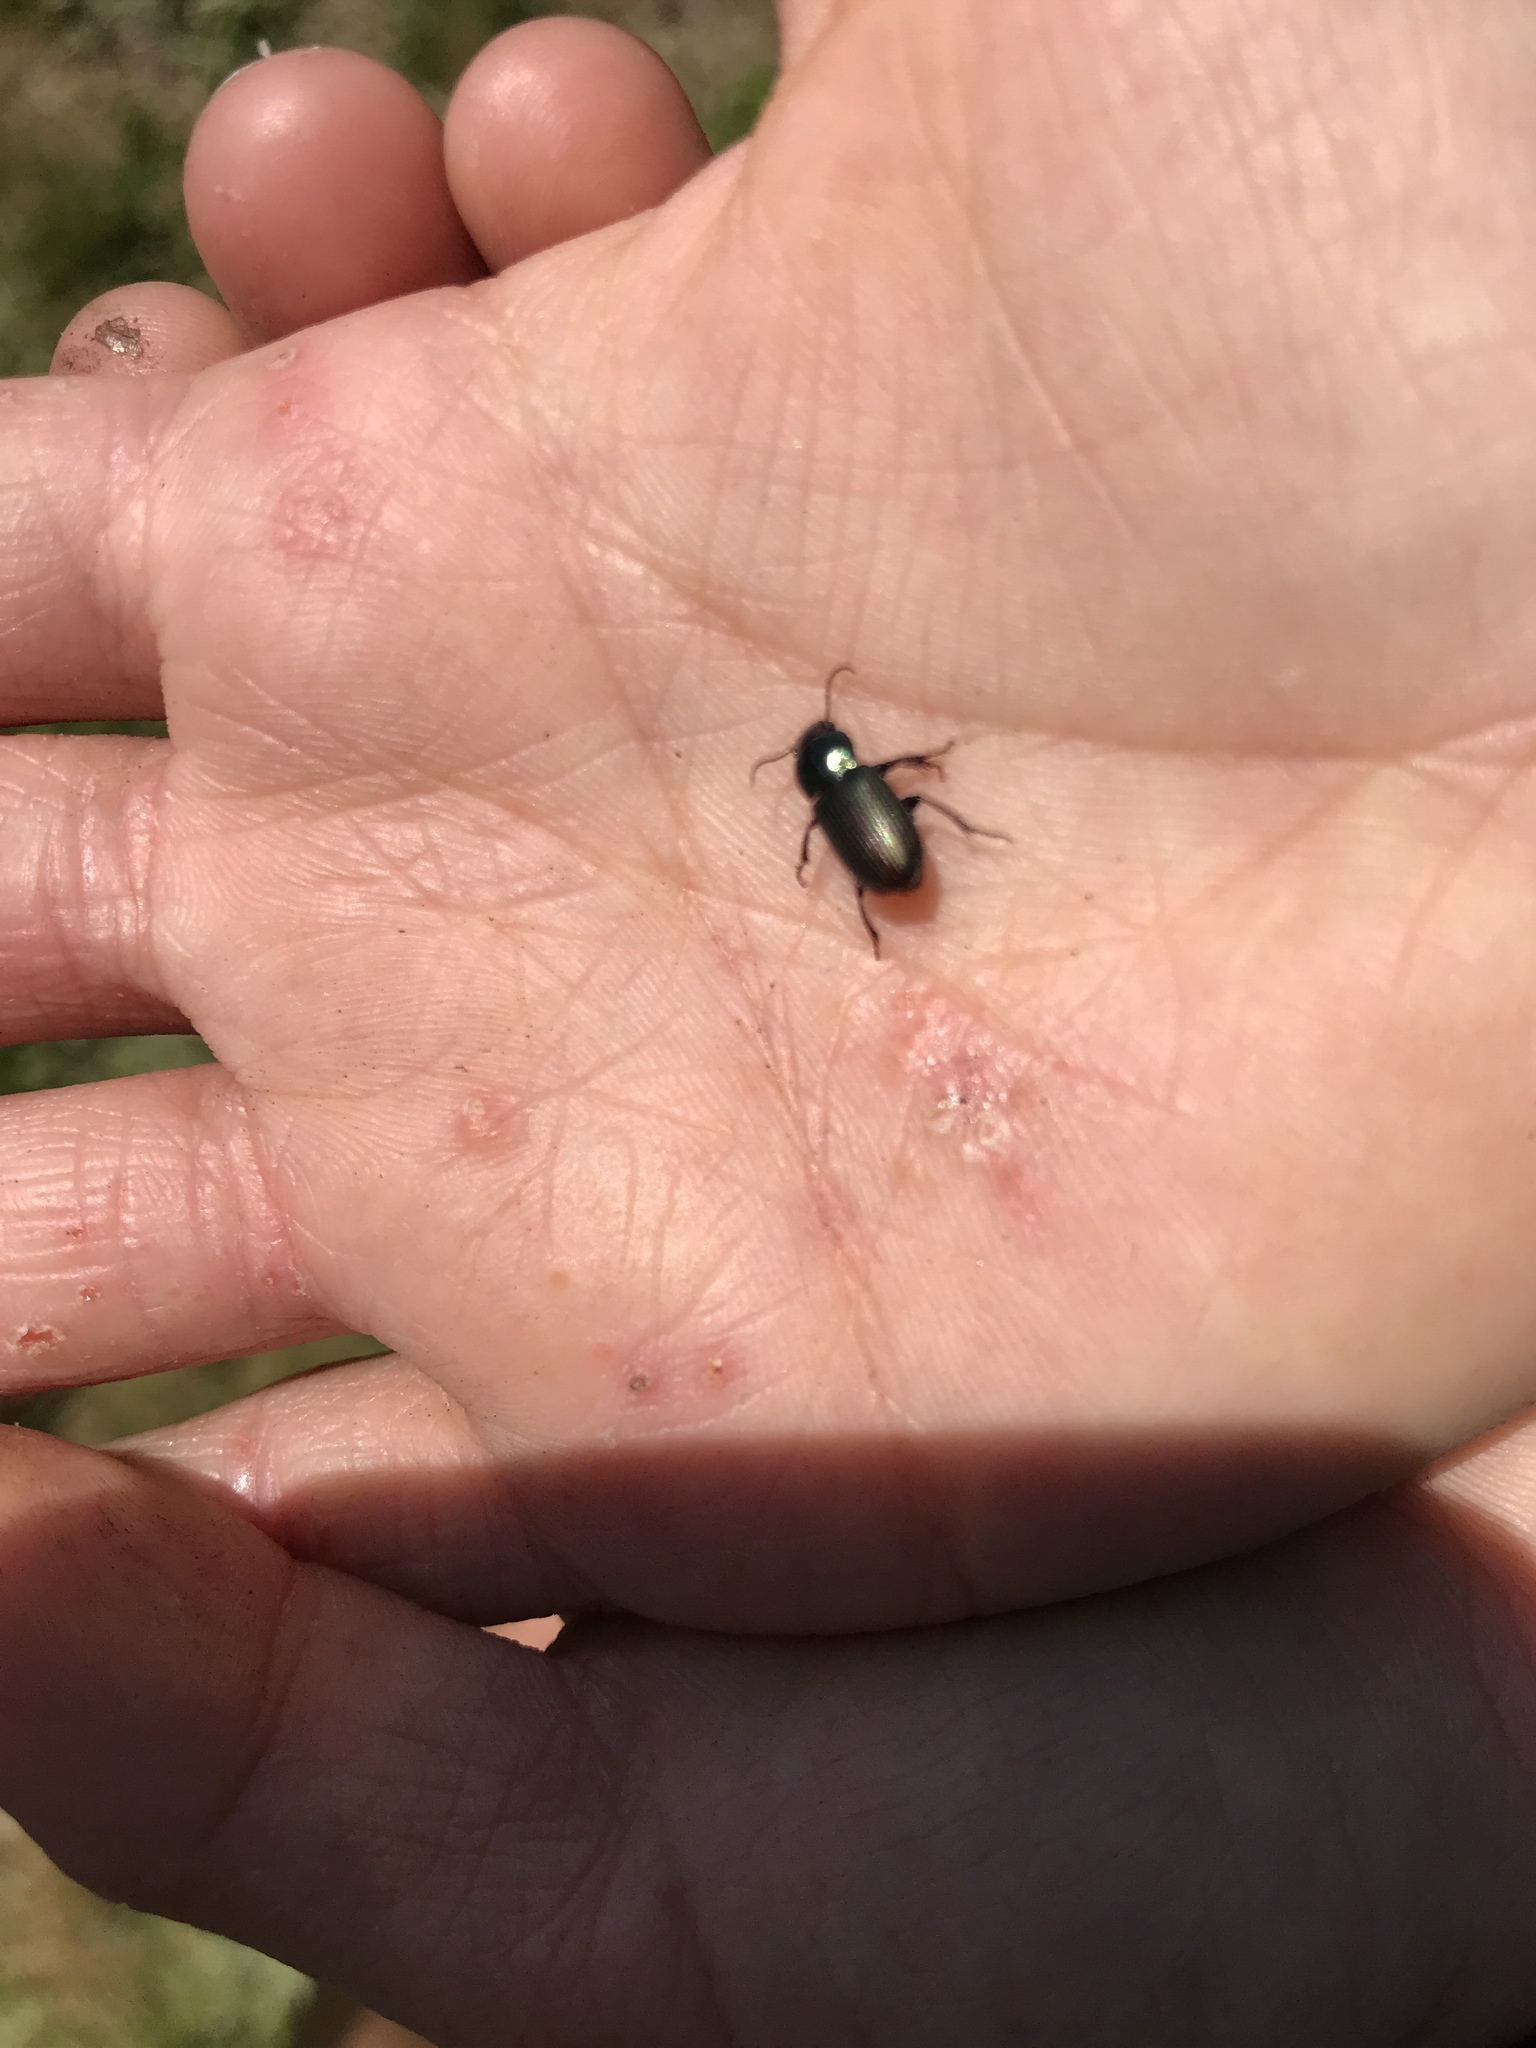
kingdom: Animalia
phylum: Arthropoda
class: Insecta
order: Coleoptera
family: Carabidae
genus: Harpalus
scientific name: Harpalus affinis
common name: Polychrome harp ground beetle
